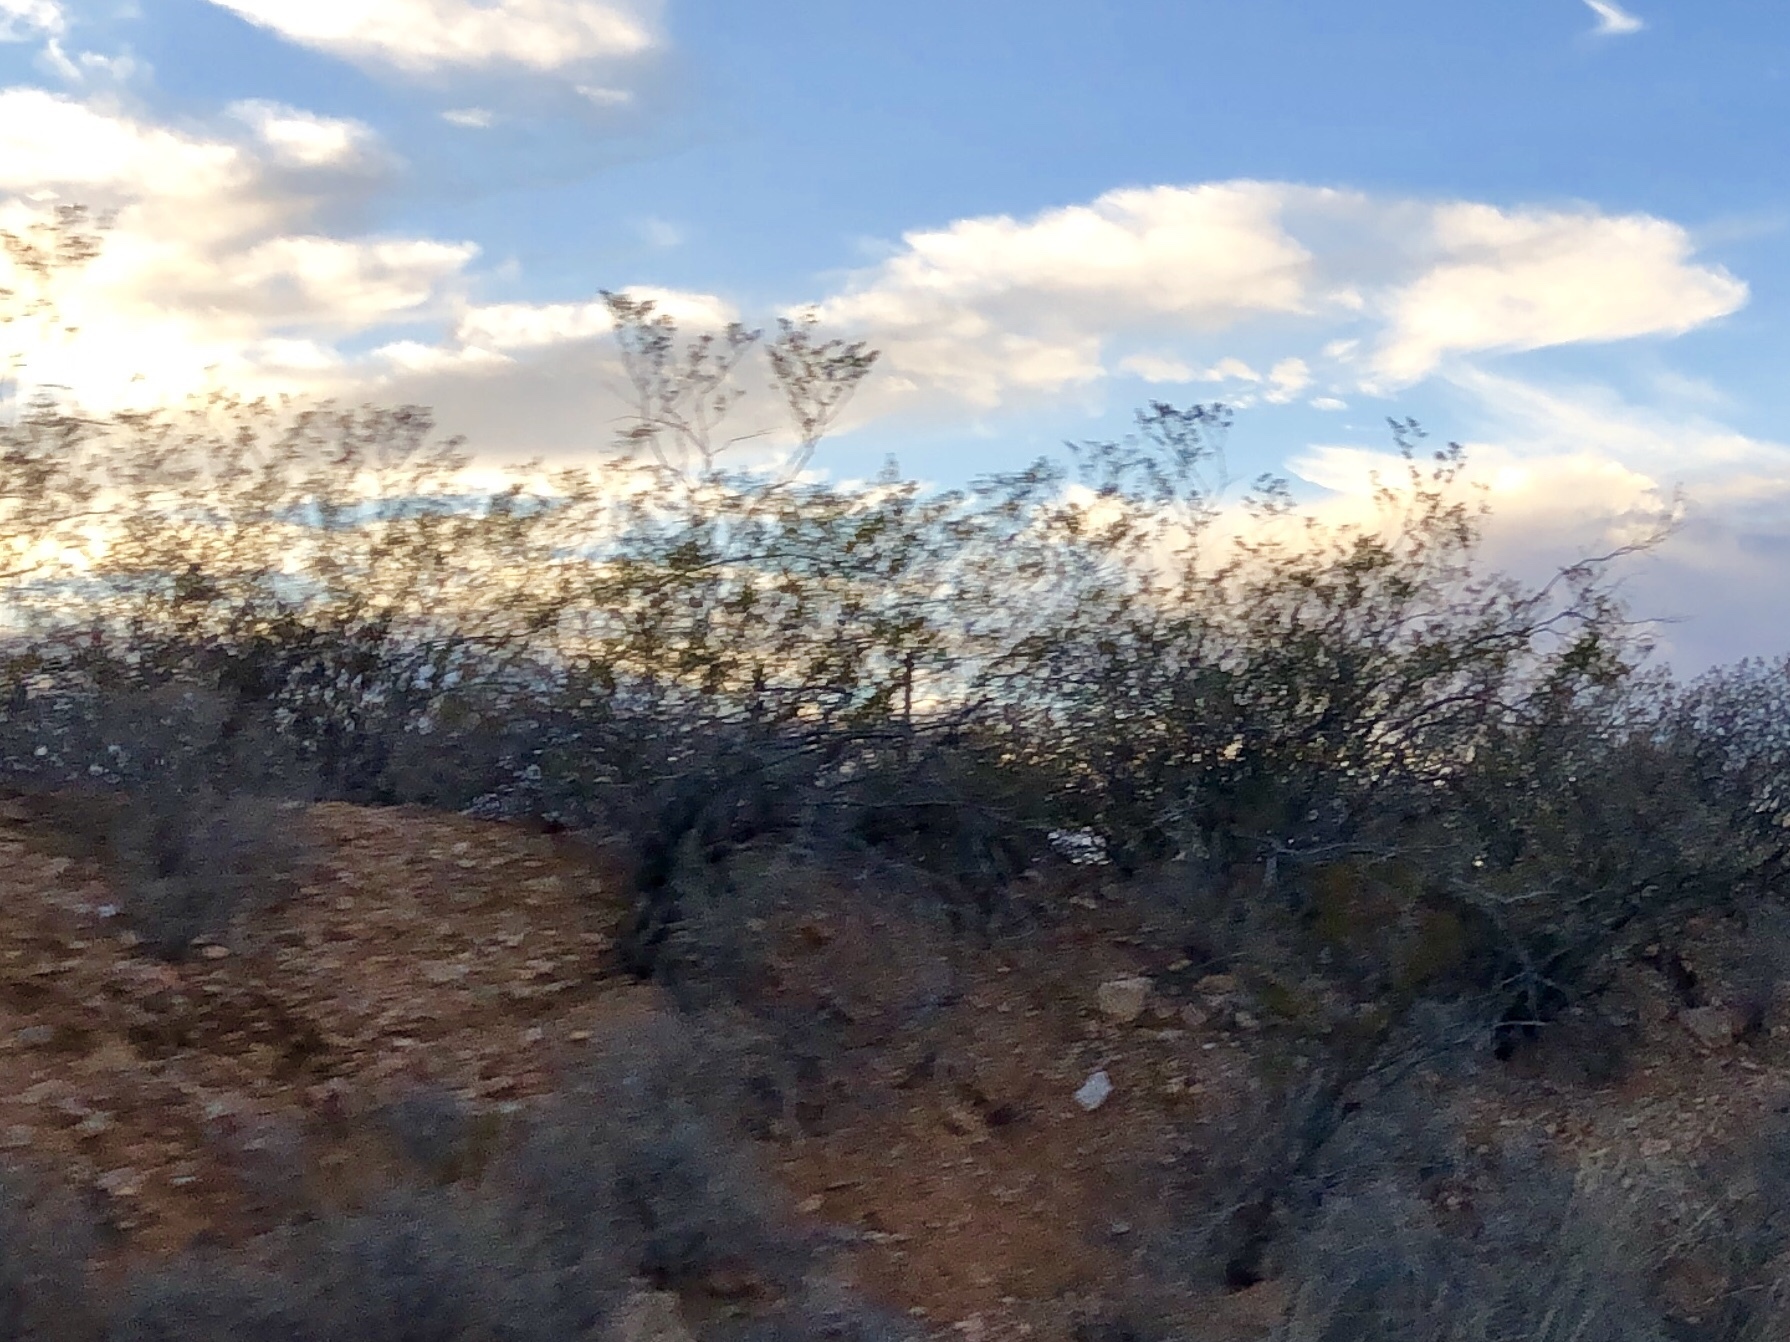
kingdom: Plantae
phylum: Tracheophyta
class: Magnoliopsida
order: Zygophyllales
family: Zygophyllaceae
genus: Larrea
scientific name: Larrea tridentata
